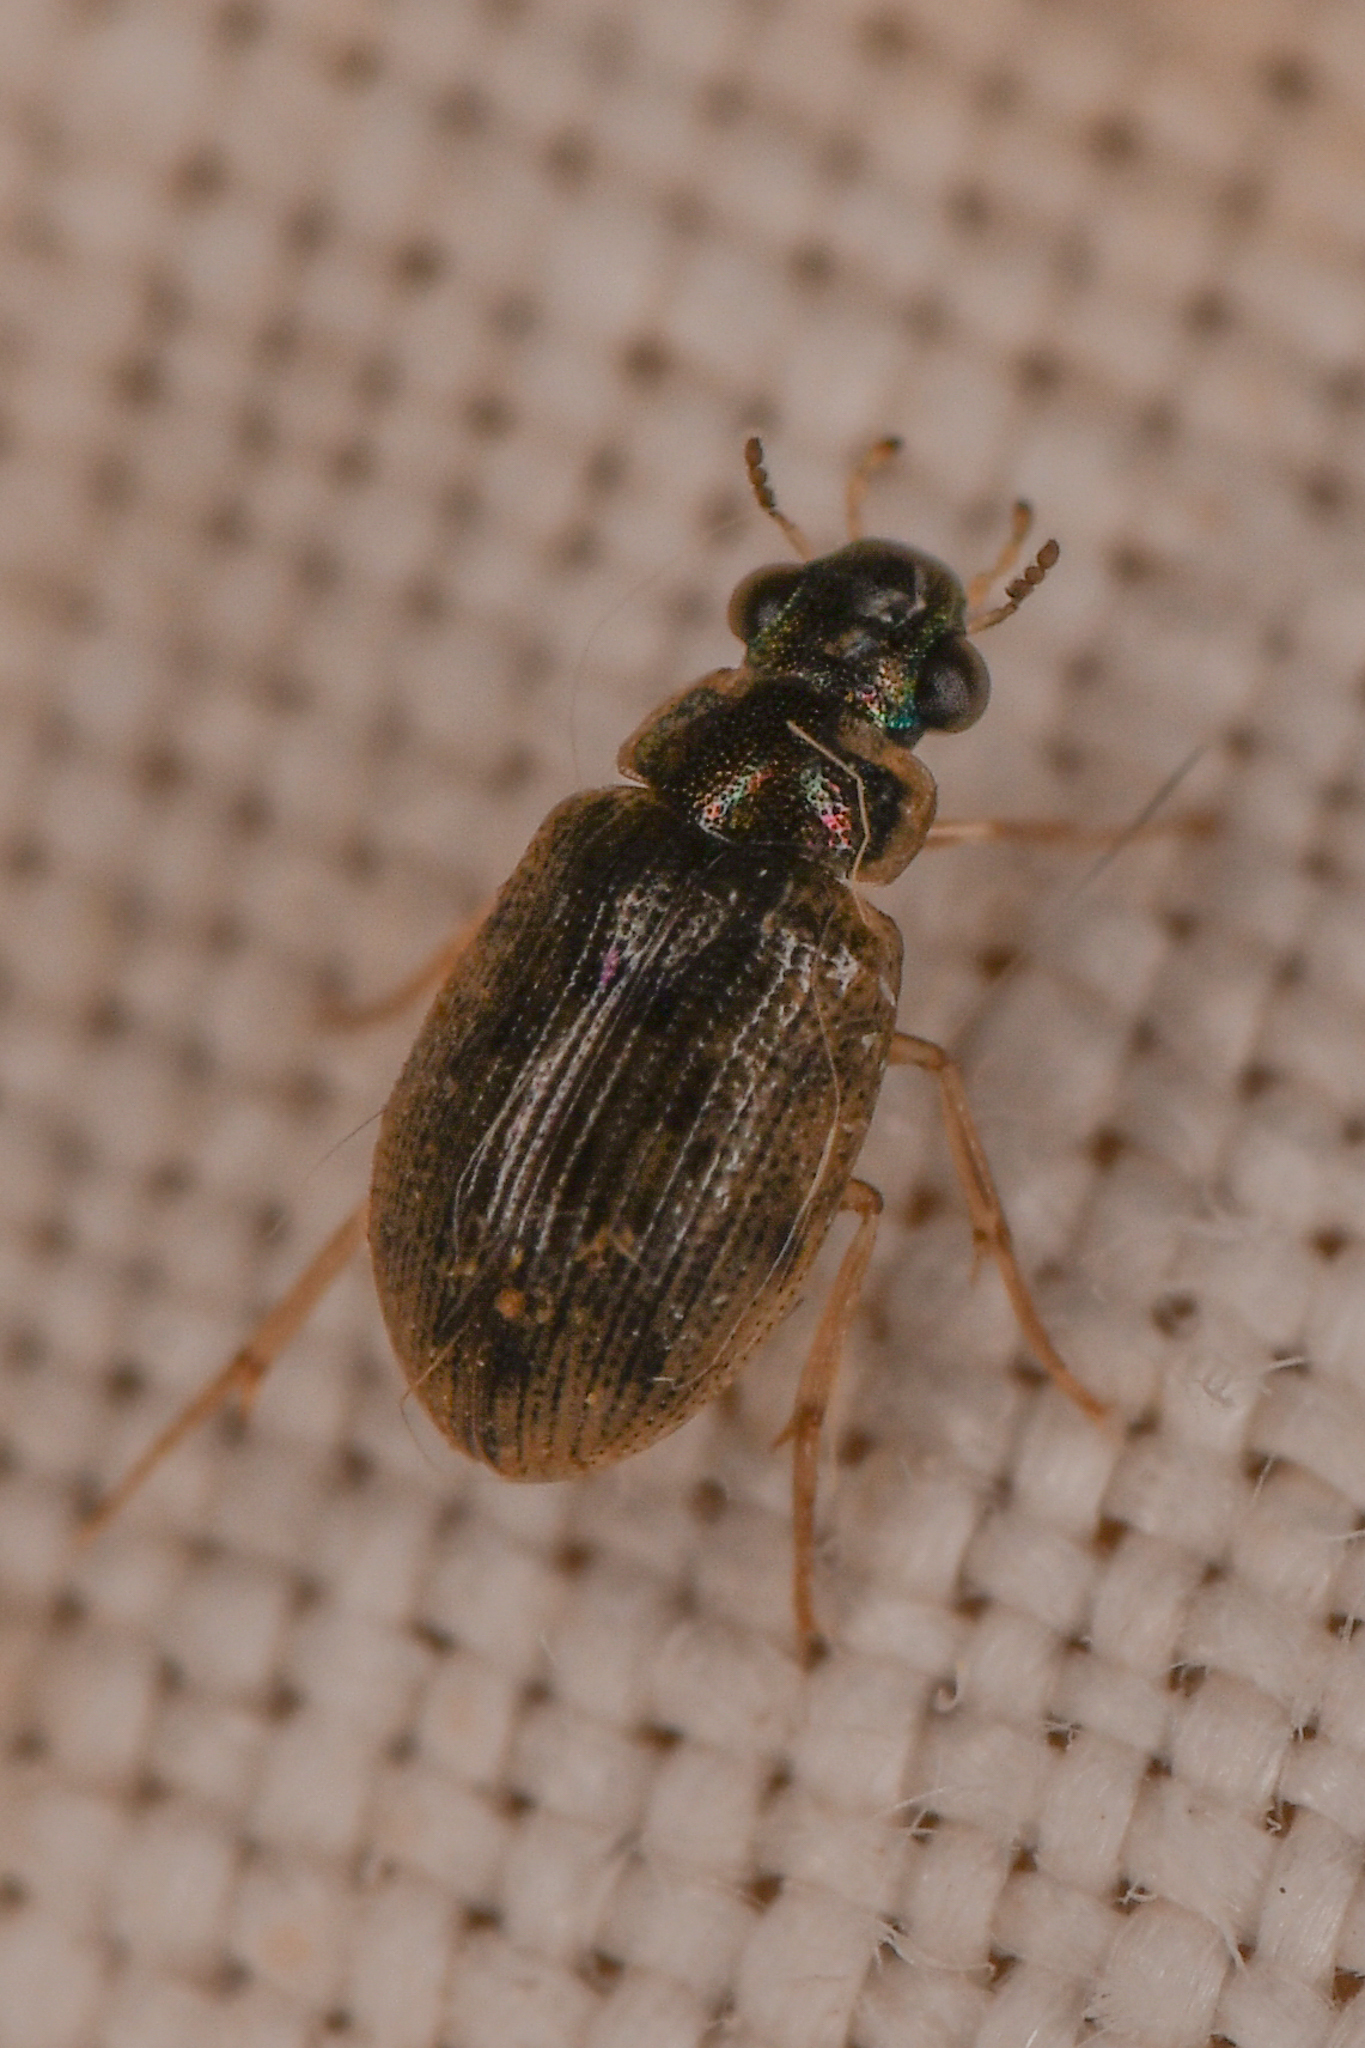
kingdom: Animalia
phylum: Arthropoda
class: Insecta
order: Coleoptera
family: Hydrophilidae
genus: Berosus
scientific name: Berosus
